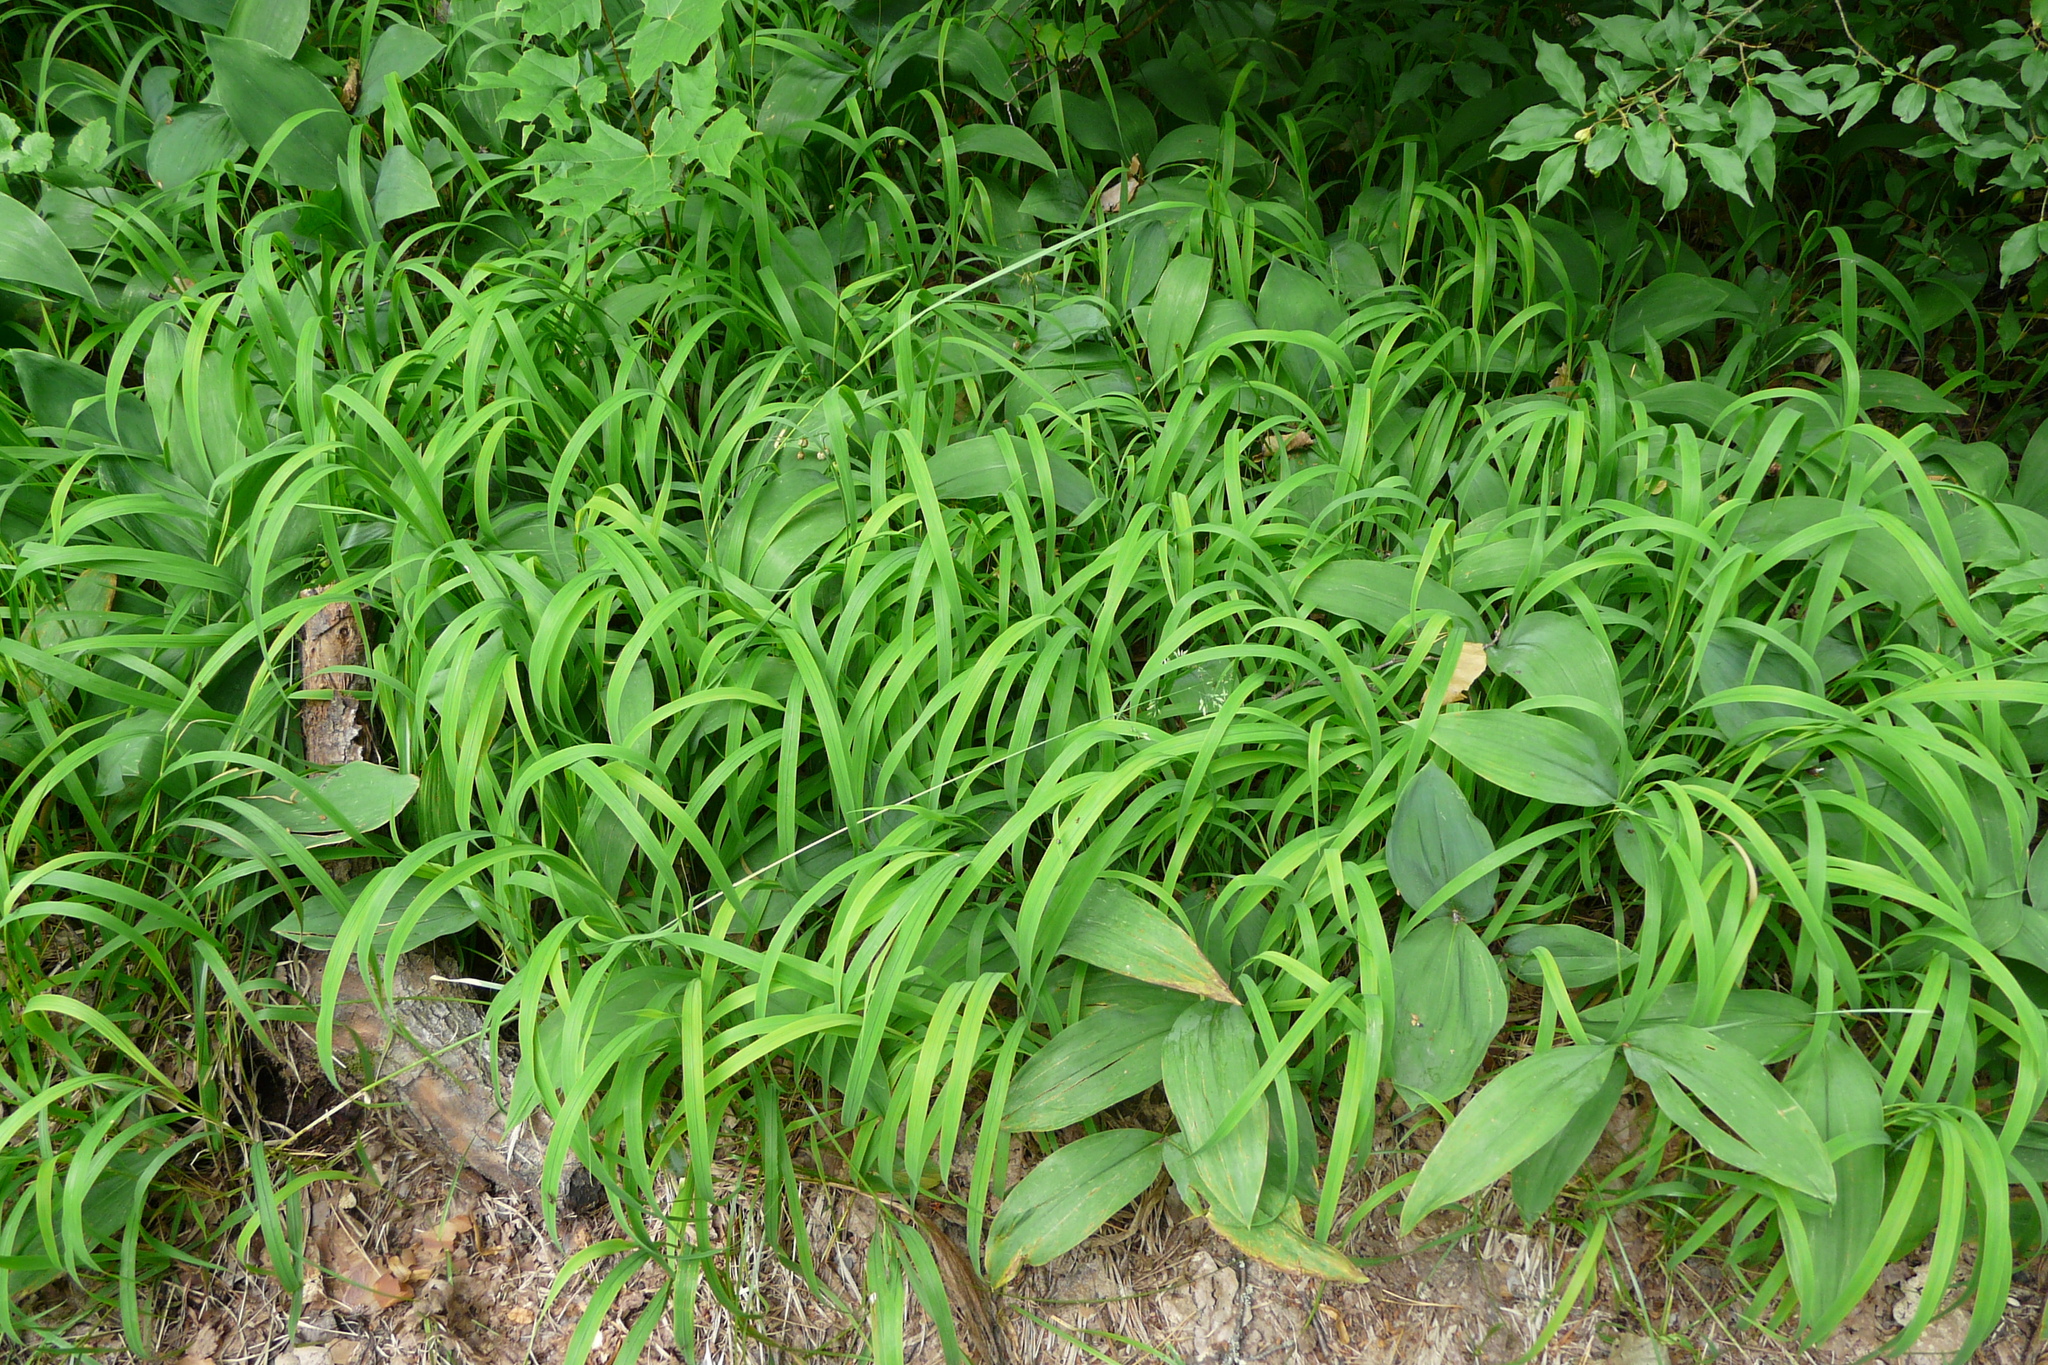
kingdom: Plantae
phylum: Tracheophyta
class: Liliopsida
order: Poales
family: Poaceae
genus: Brachypodium
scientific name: Brachypodium pinnatum
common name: Tor grass
